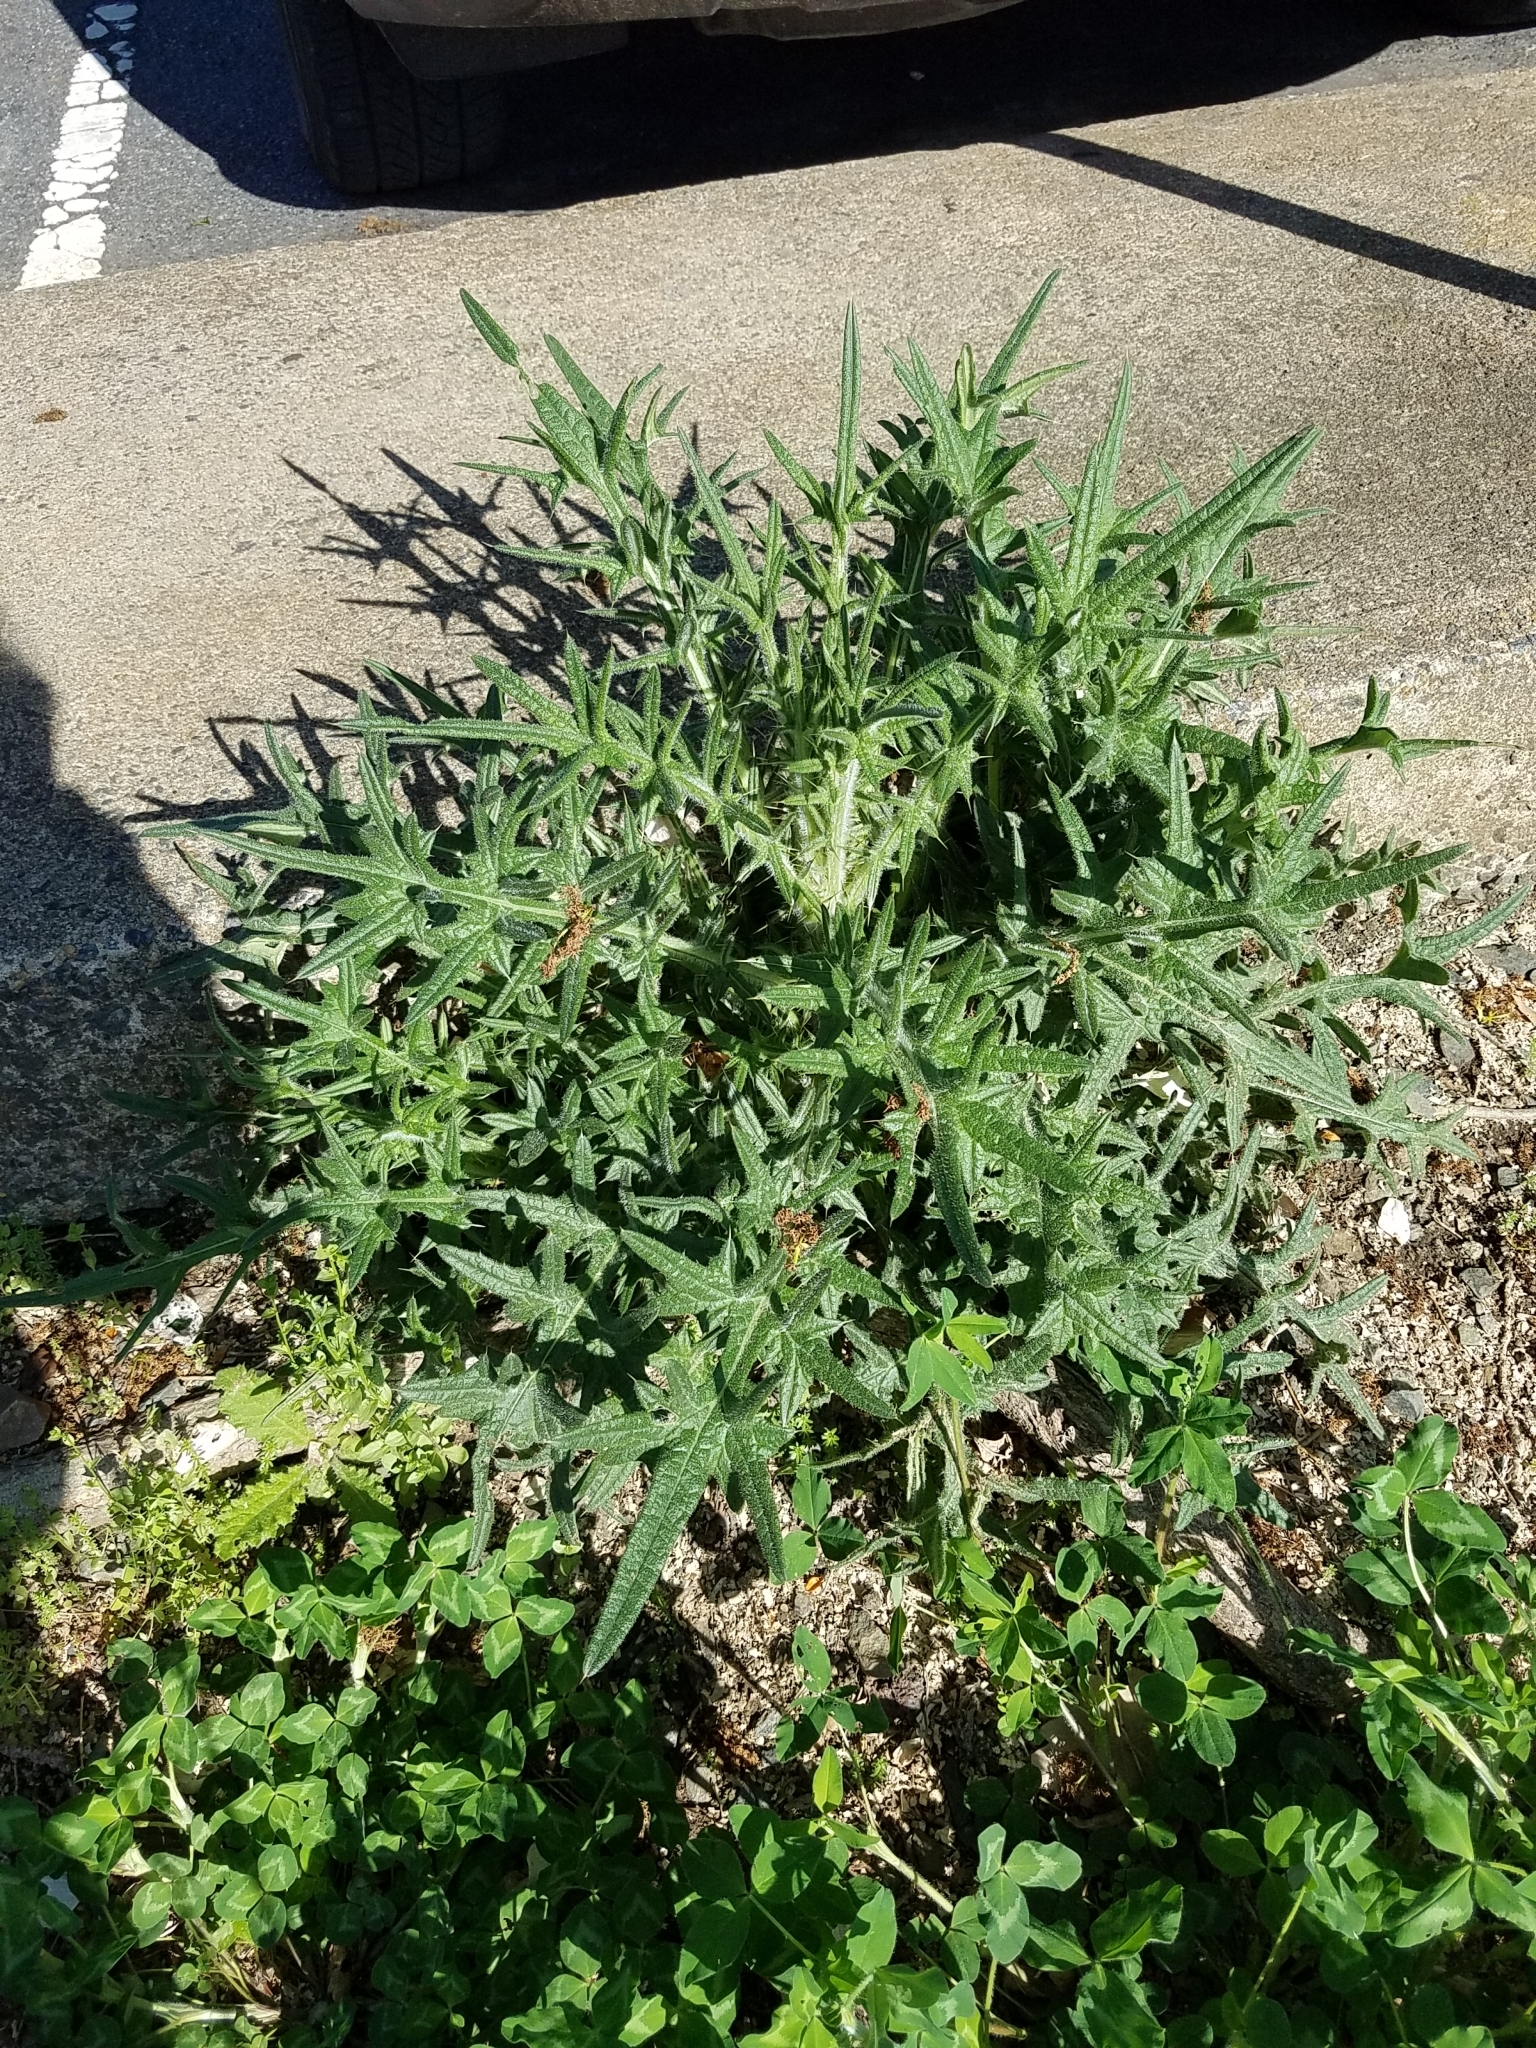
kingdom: Plantae
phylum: Tracheophyta
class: Magnoliopsida
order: Asterales
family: Asteraceae
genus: Cirsium
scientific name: Cirsium vulgare
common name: Bull thistle
